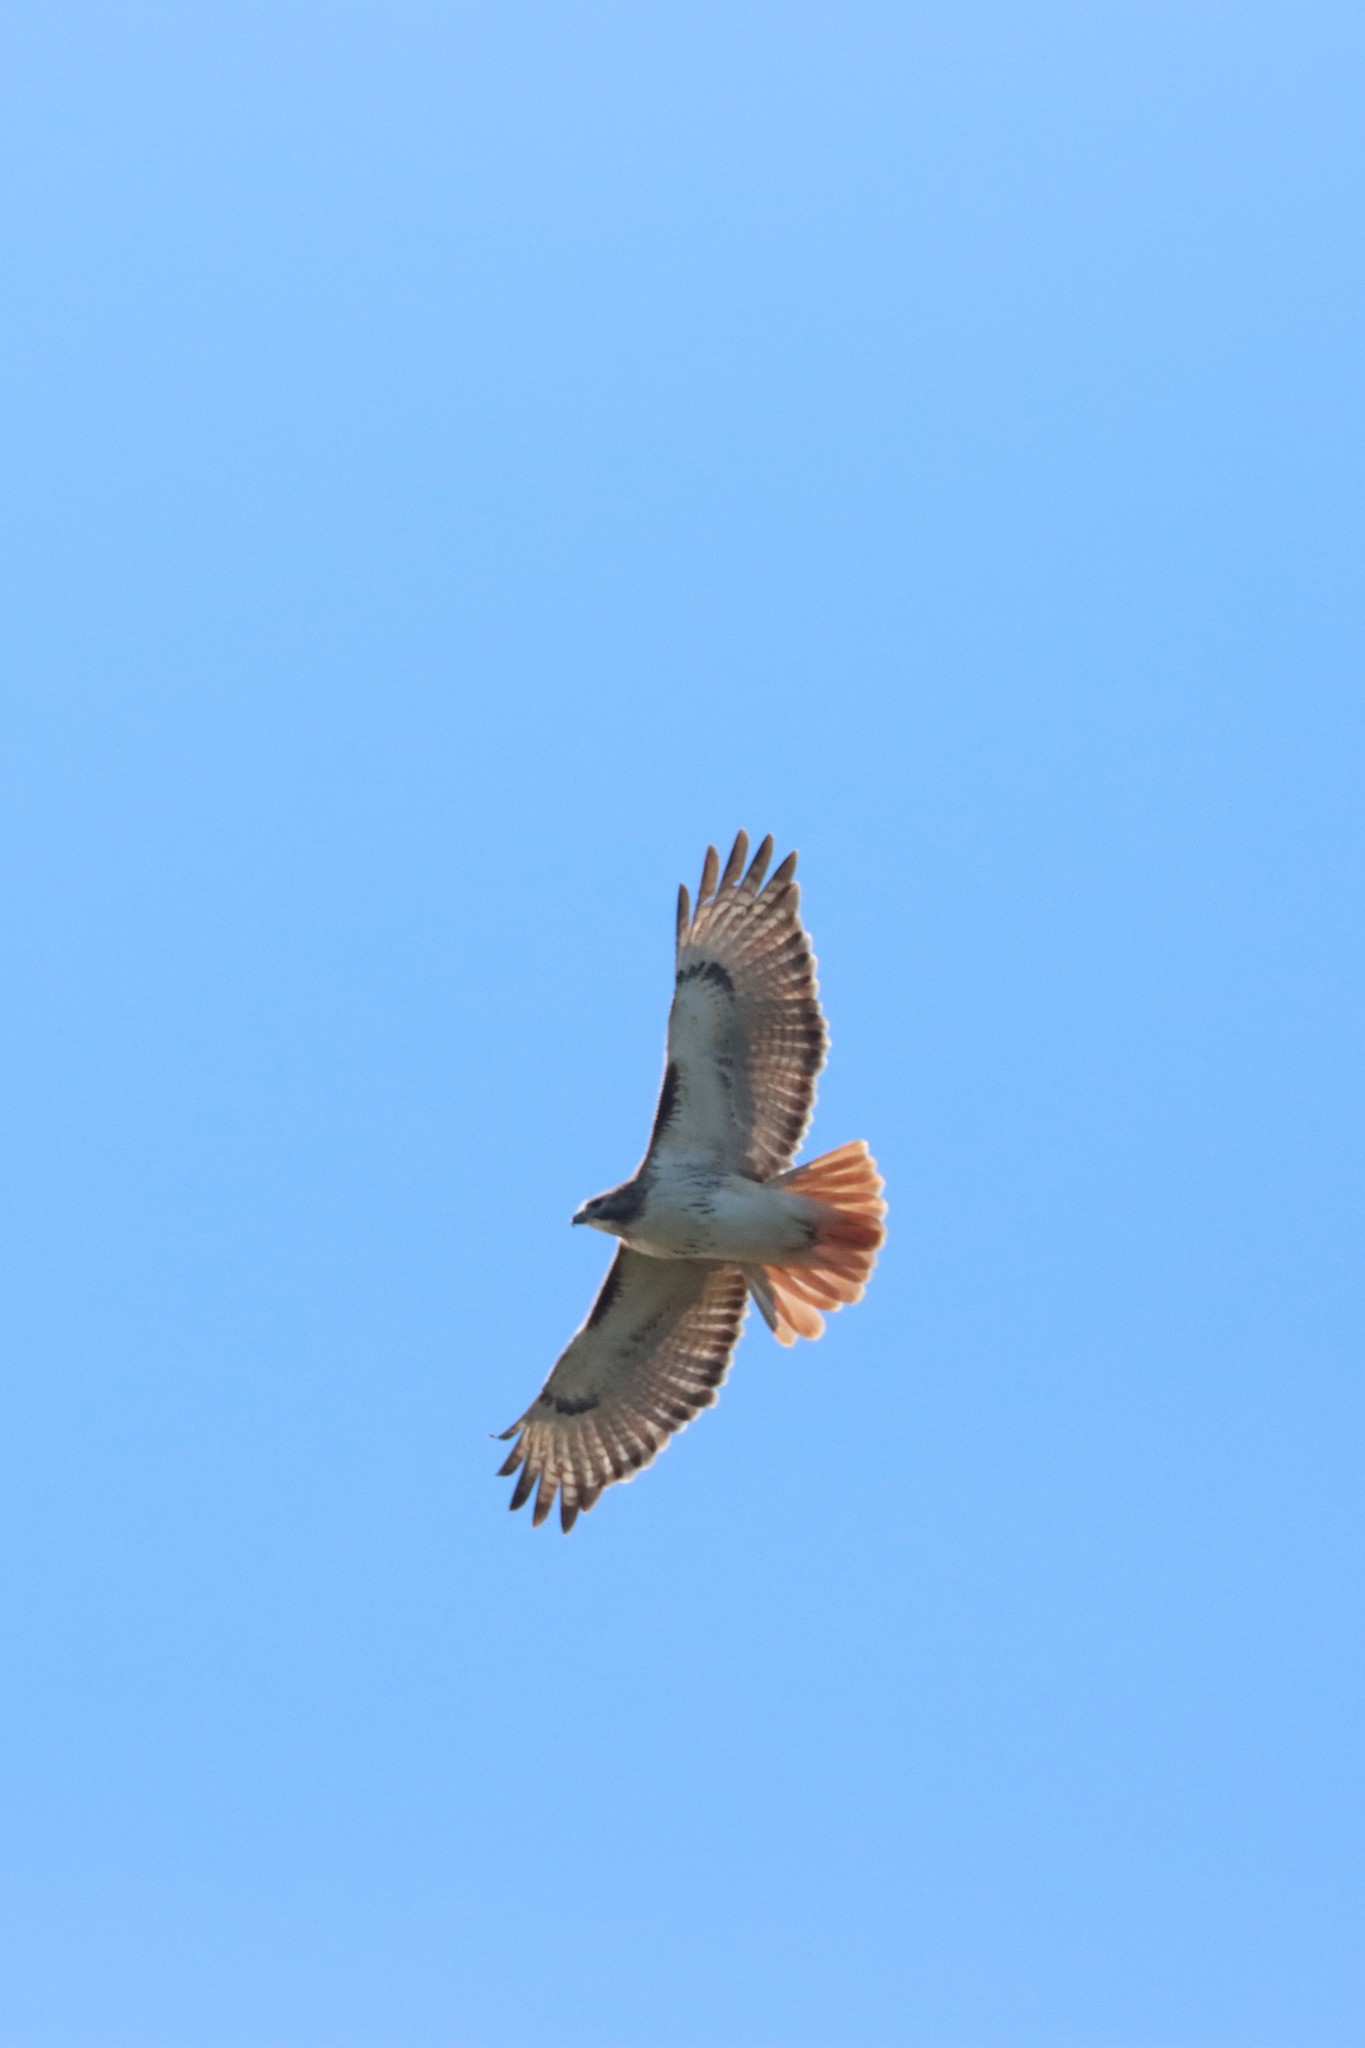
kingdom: Animalia
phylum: Chordata
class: Aves
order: Accipitriformes
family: Accipitridae
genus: Buteo
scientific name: Buteo jamaicensis
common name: Red-tailed hawk
